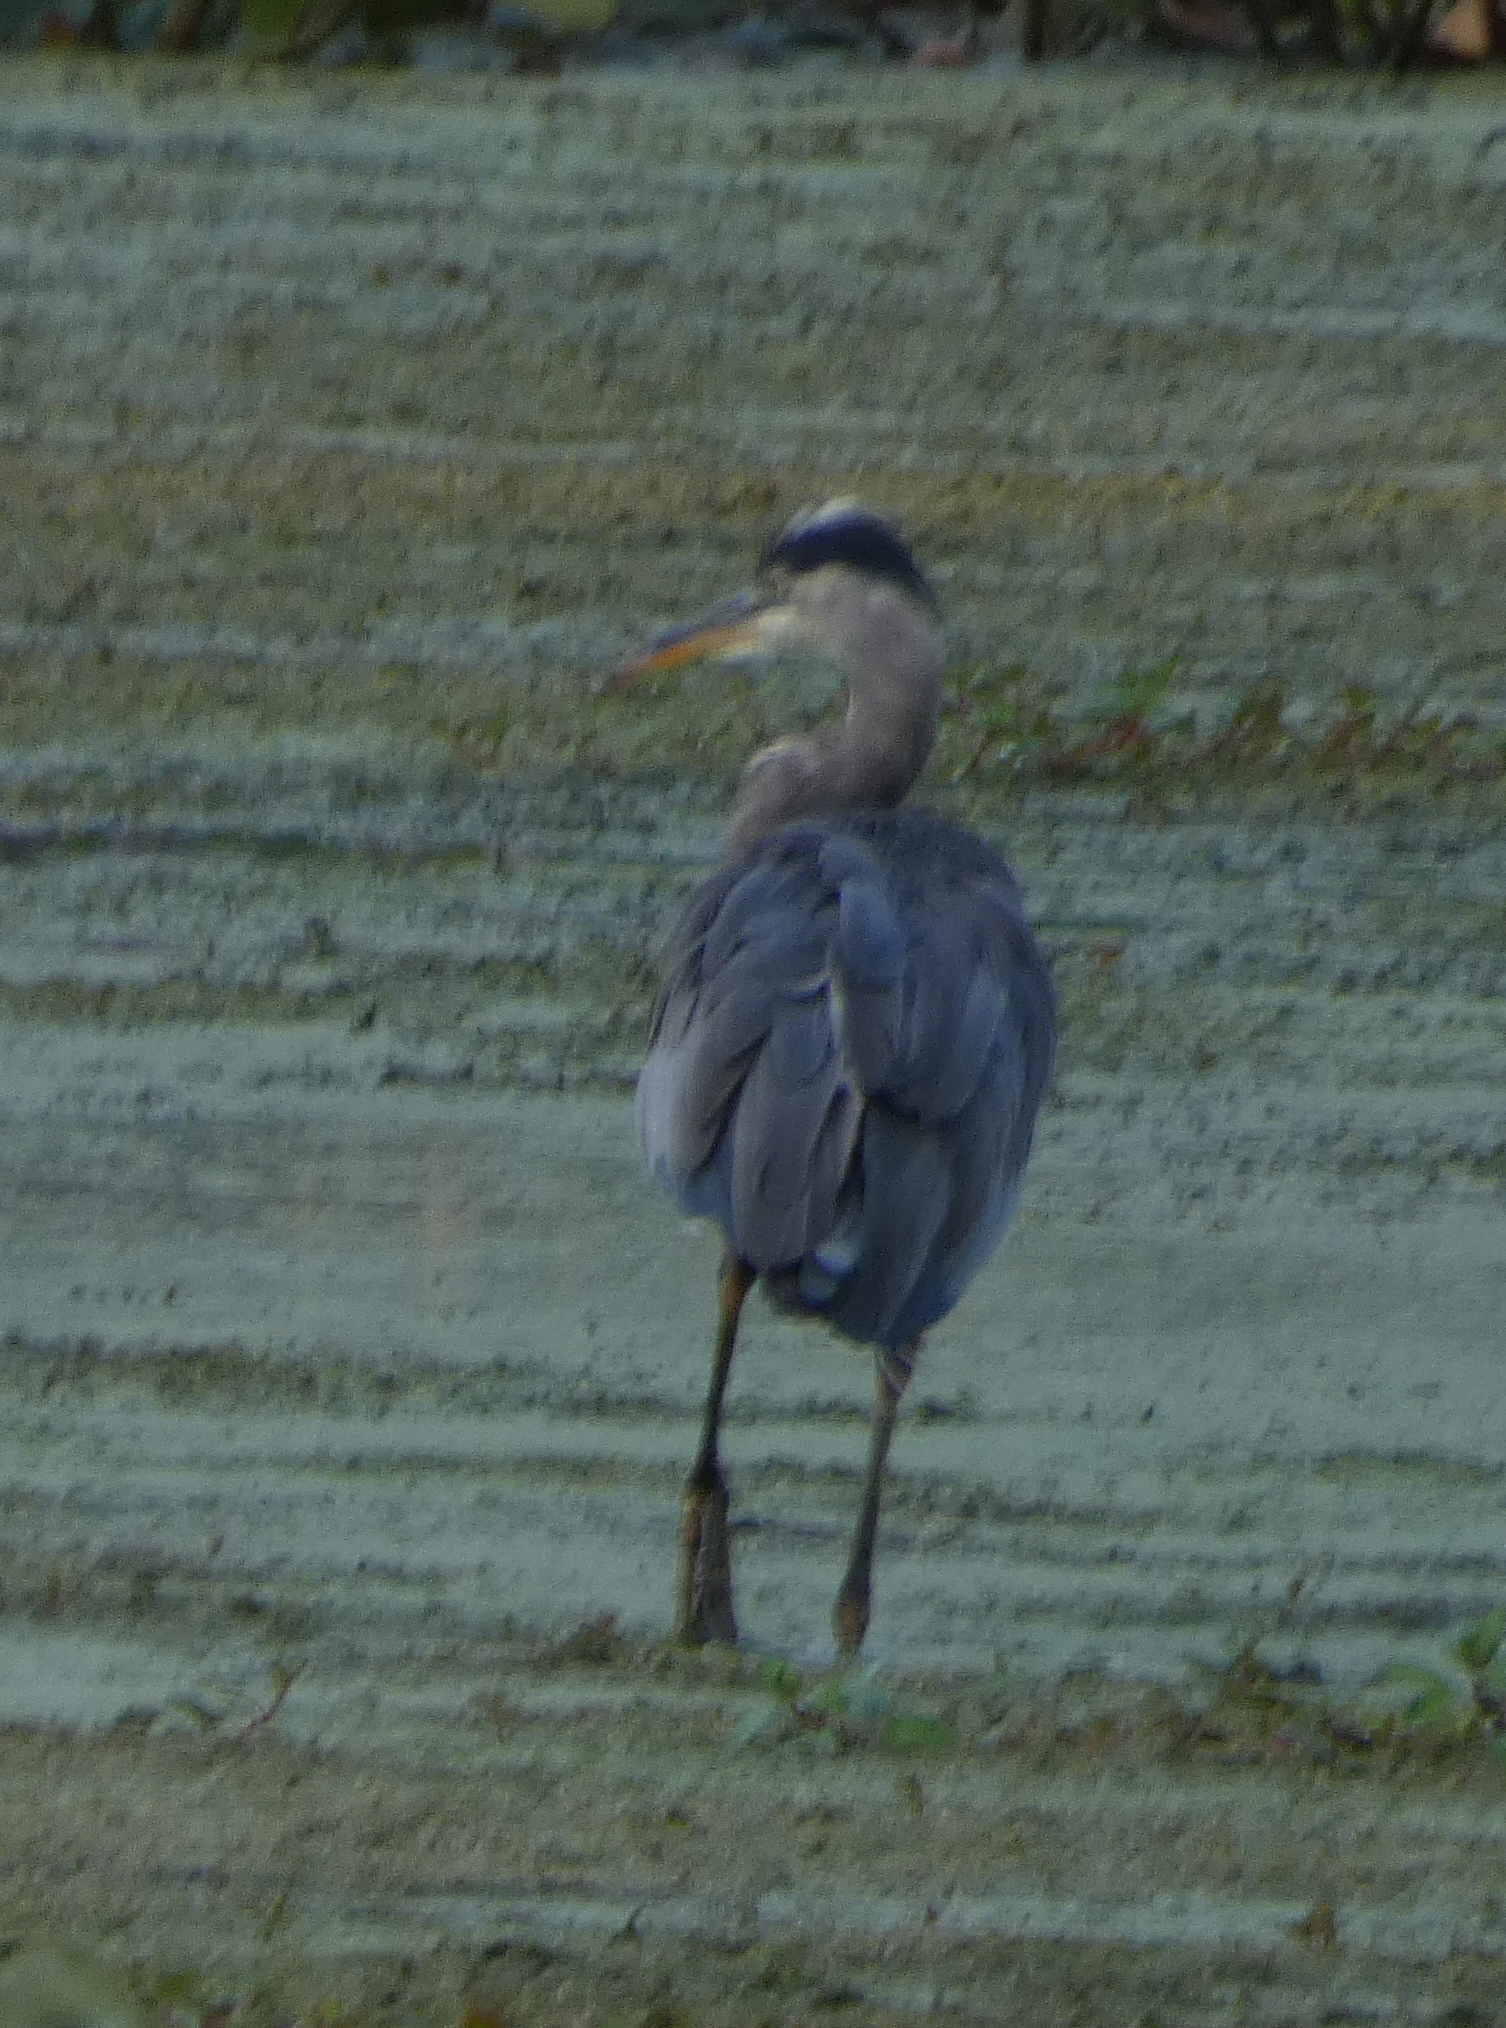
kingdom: Animalia
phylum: Chordata
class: Aves
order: Pelecaniformes
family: Ardeidae
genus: Ardea
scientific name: Ardea herodias
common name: Great blue heron
